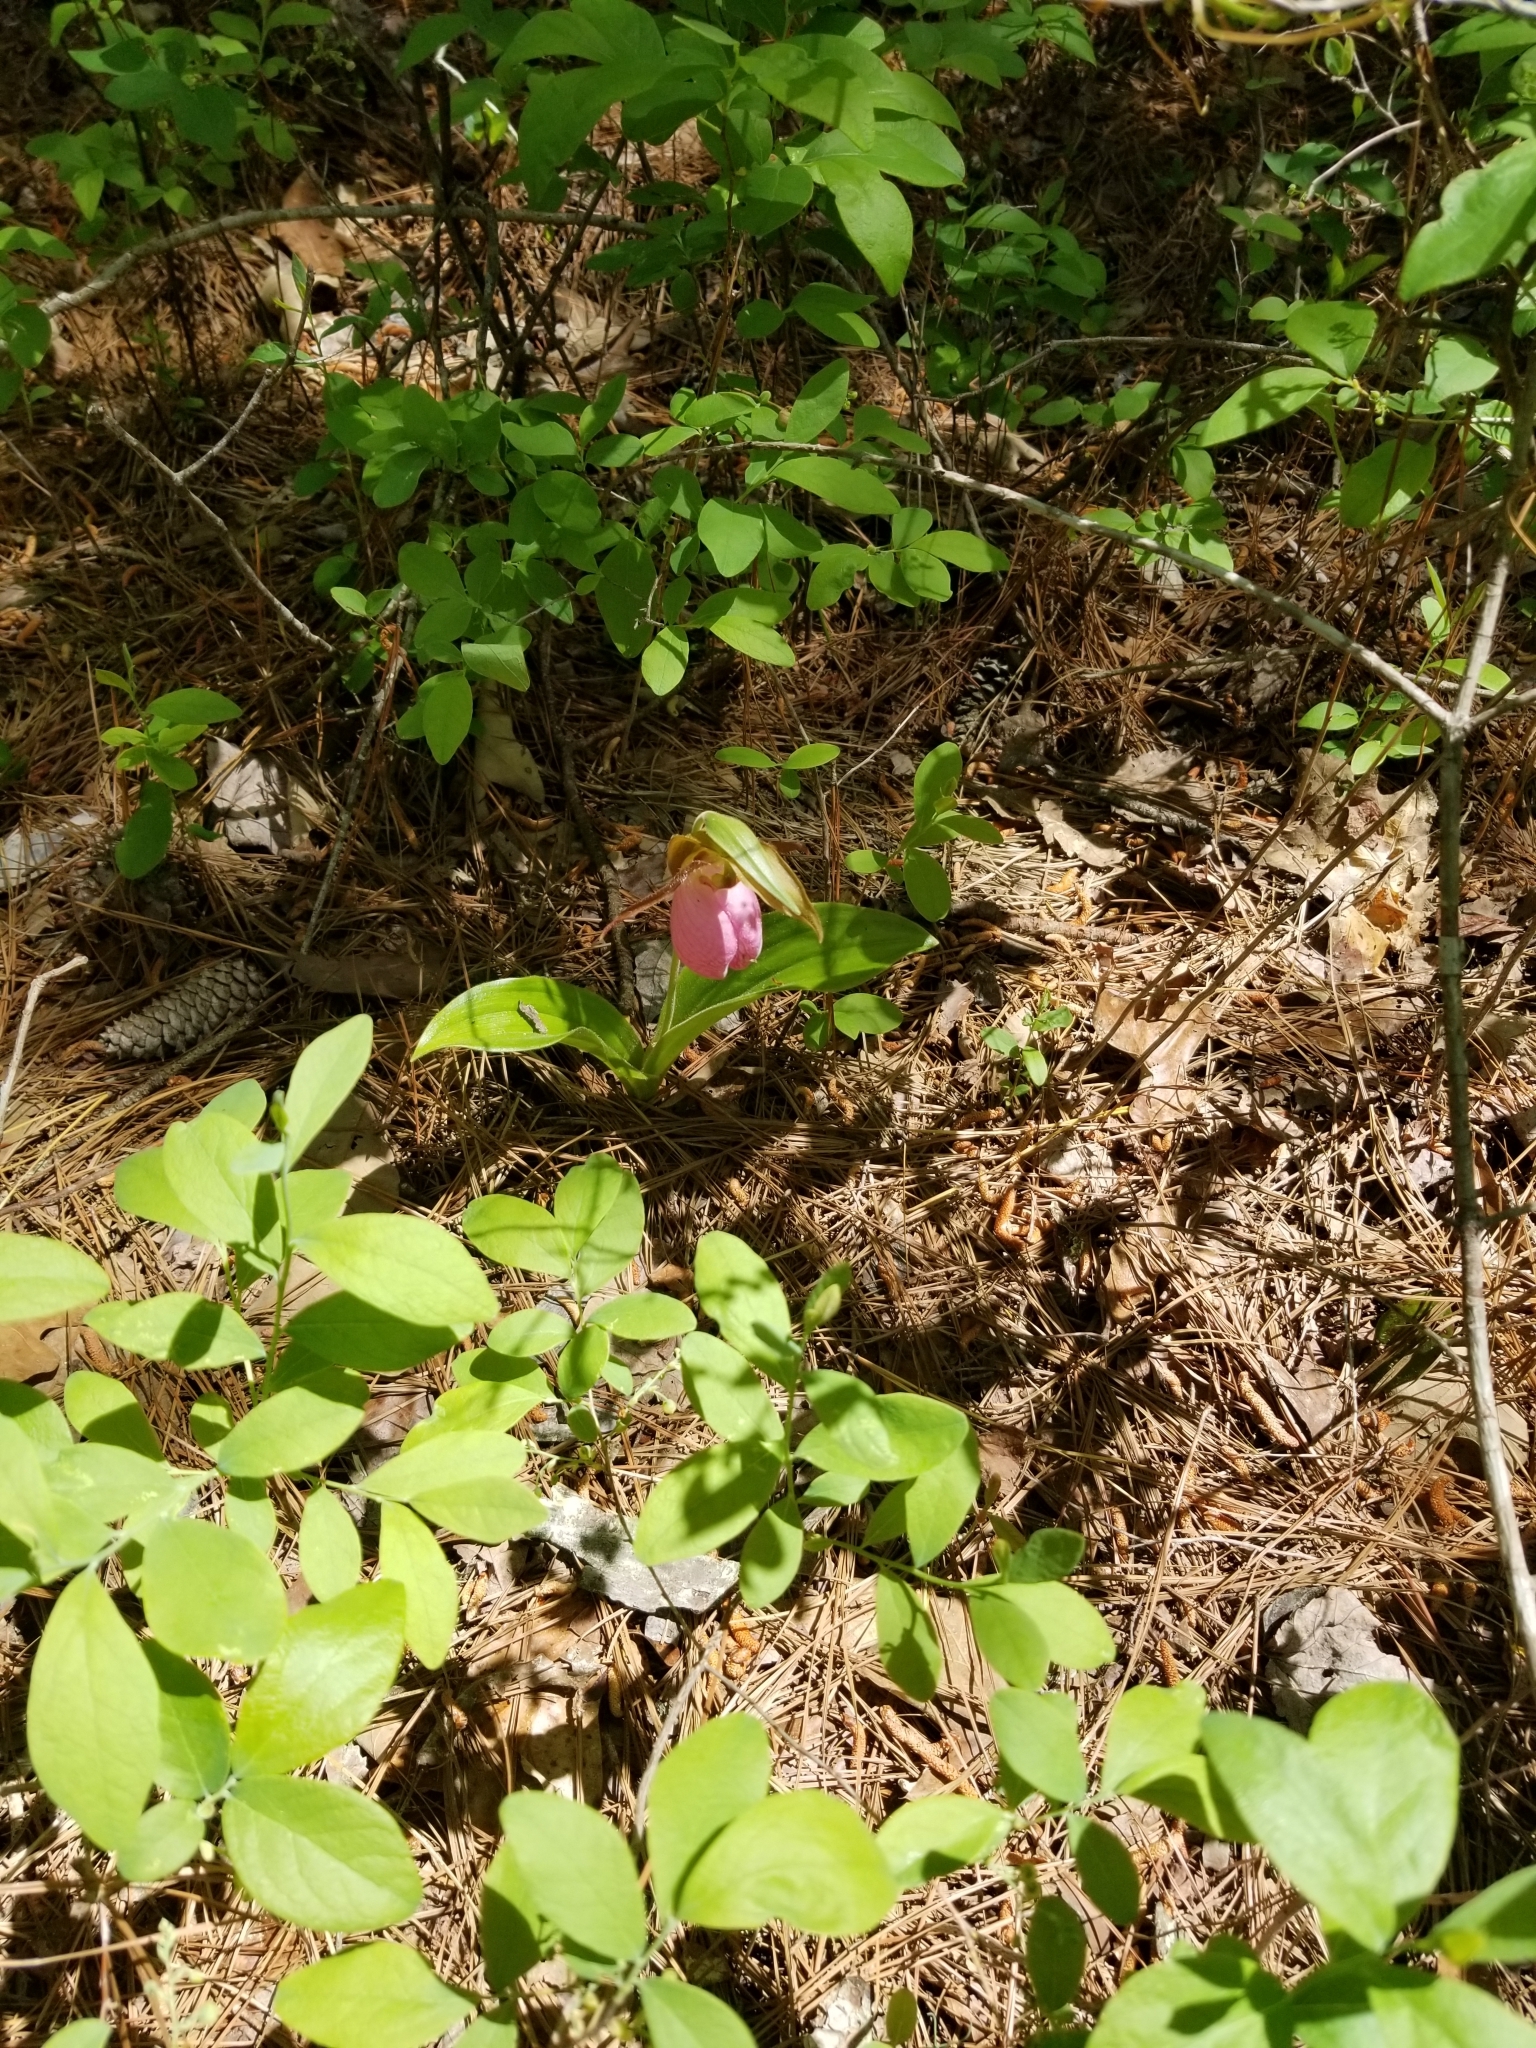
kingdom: Plantae
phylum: Tracheophyta
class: Liliopsida
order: Asparagales
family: Orchidaceae
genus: Cypripedium
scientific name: Cypripedium acaule
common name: Pink lady's-slipper
